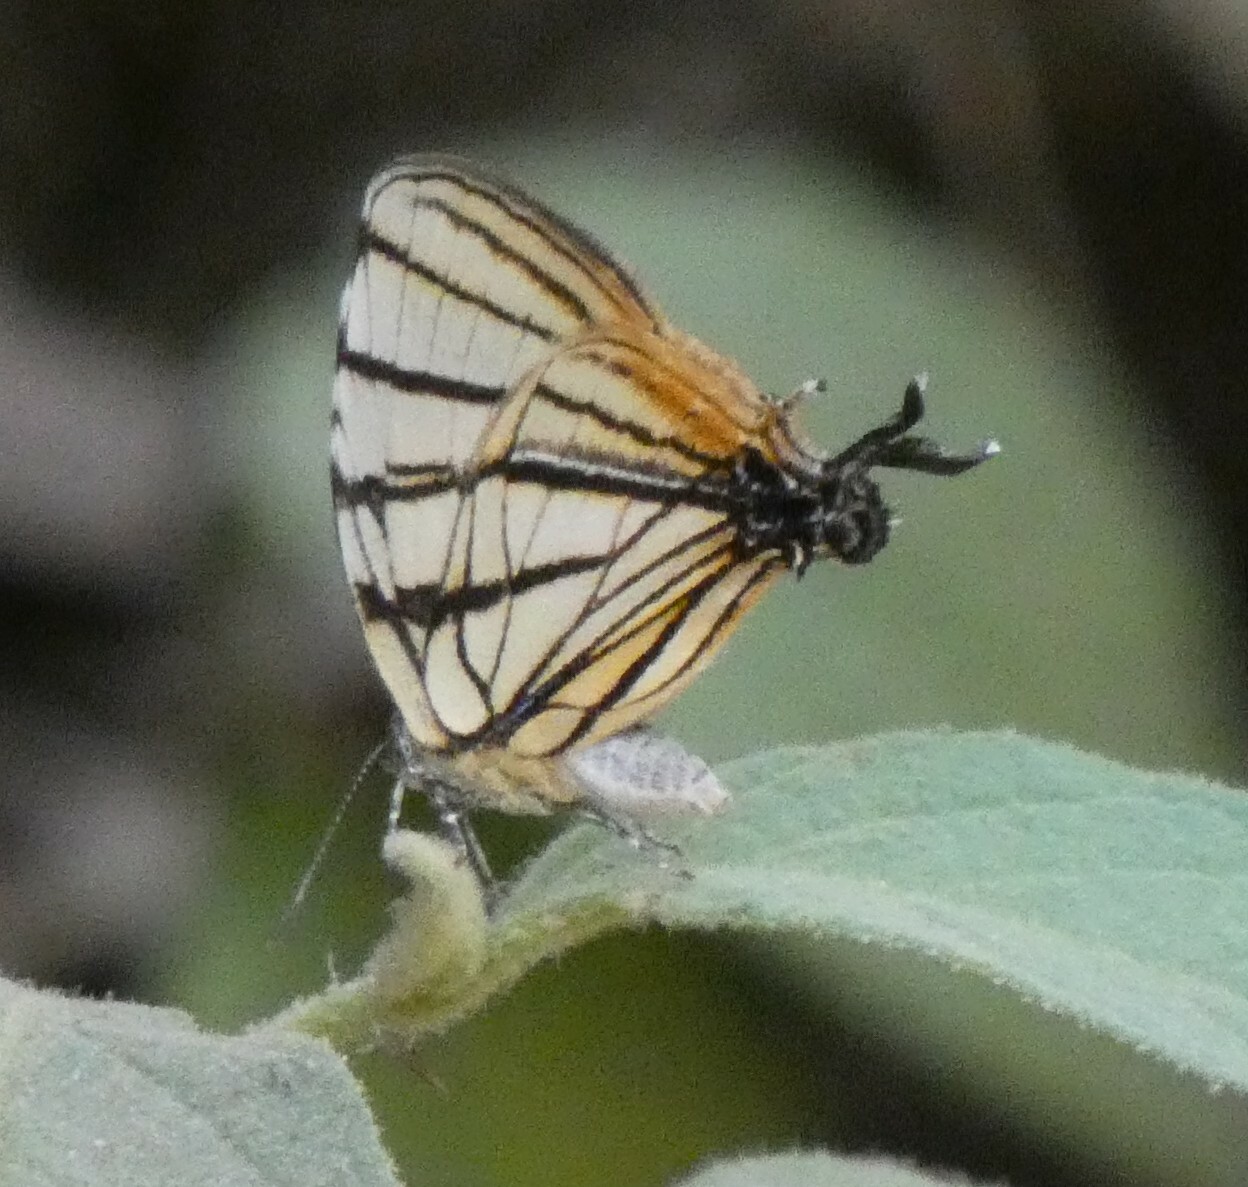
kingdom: Animalia
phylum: Arthropoda
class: Insecta
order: Lepidoptera
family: Lycaenidae
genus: Arawacus
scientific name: Arawacus melibaeus
